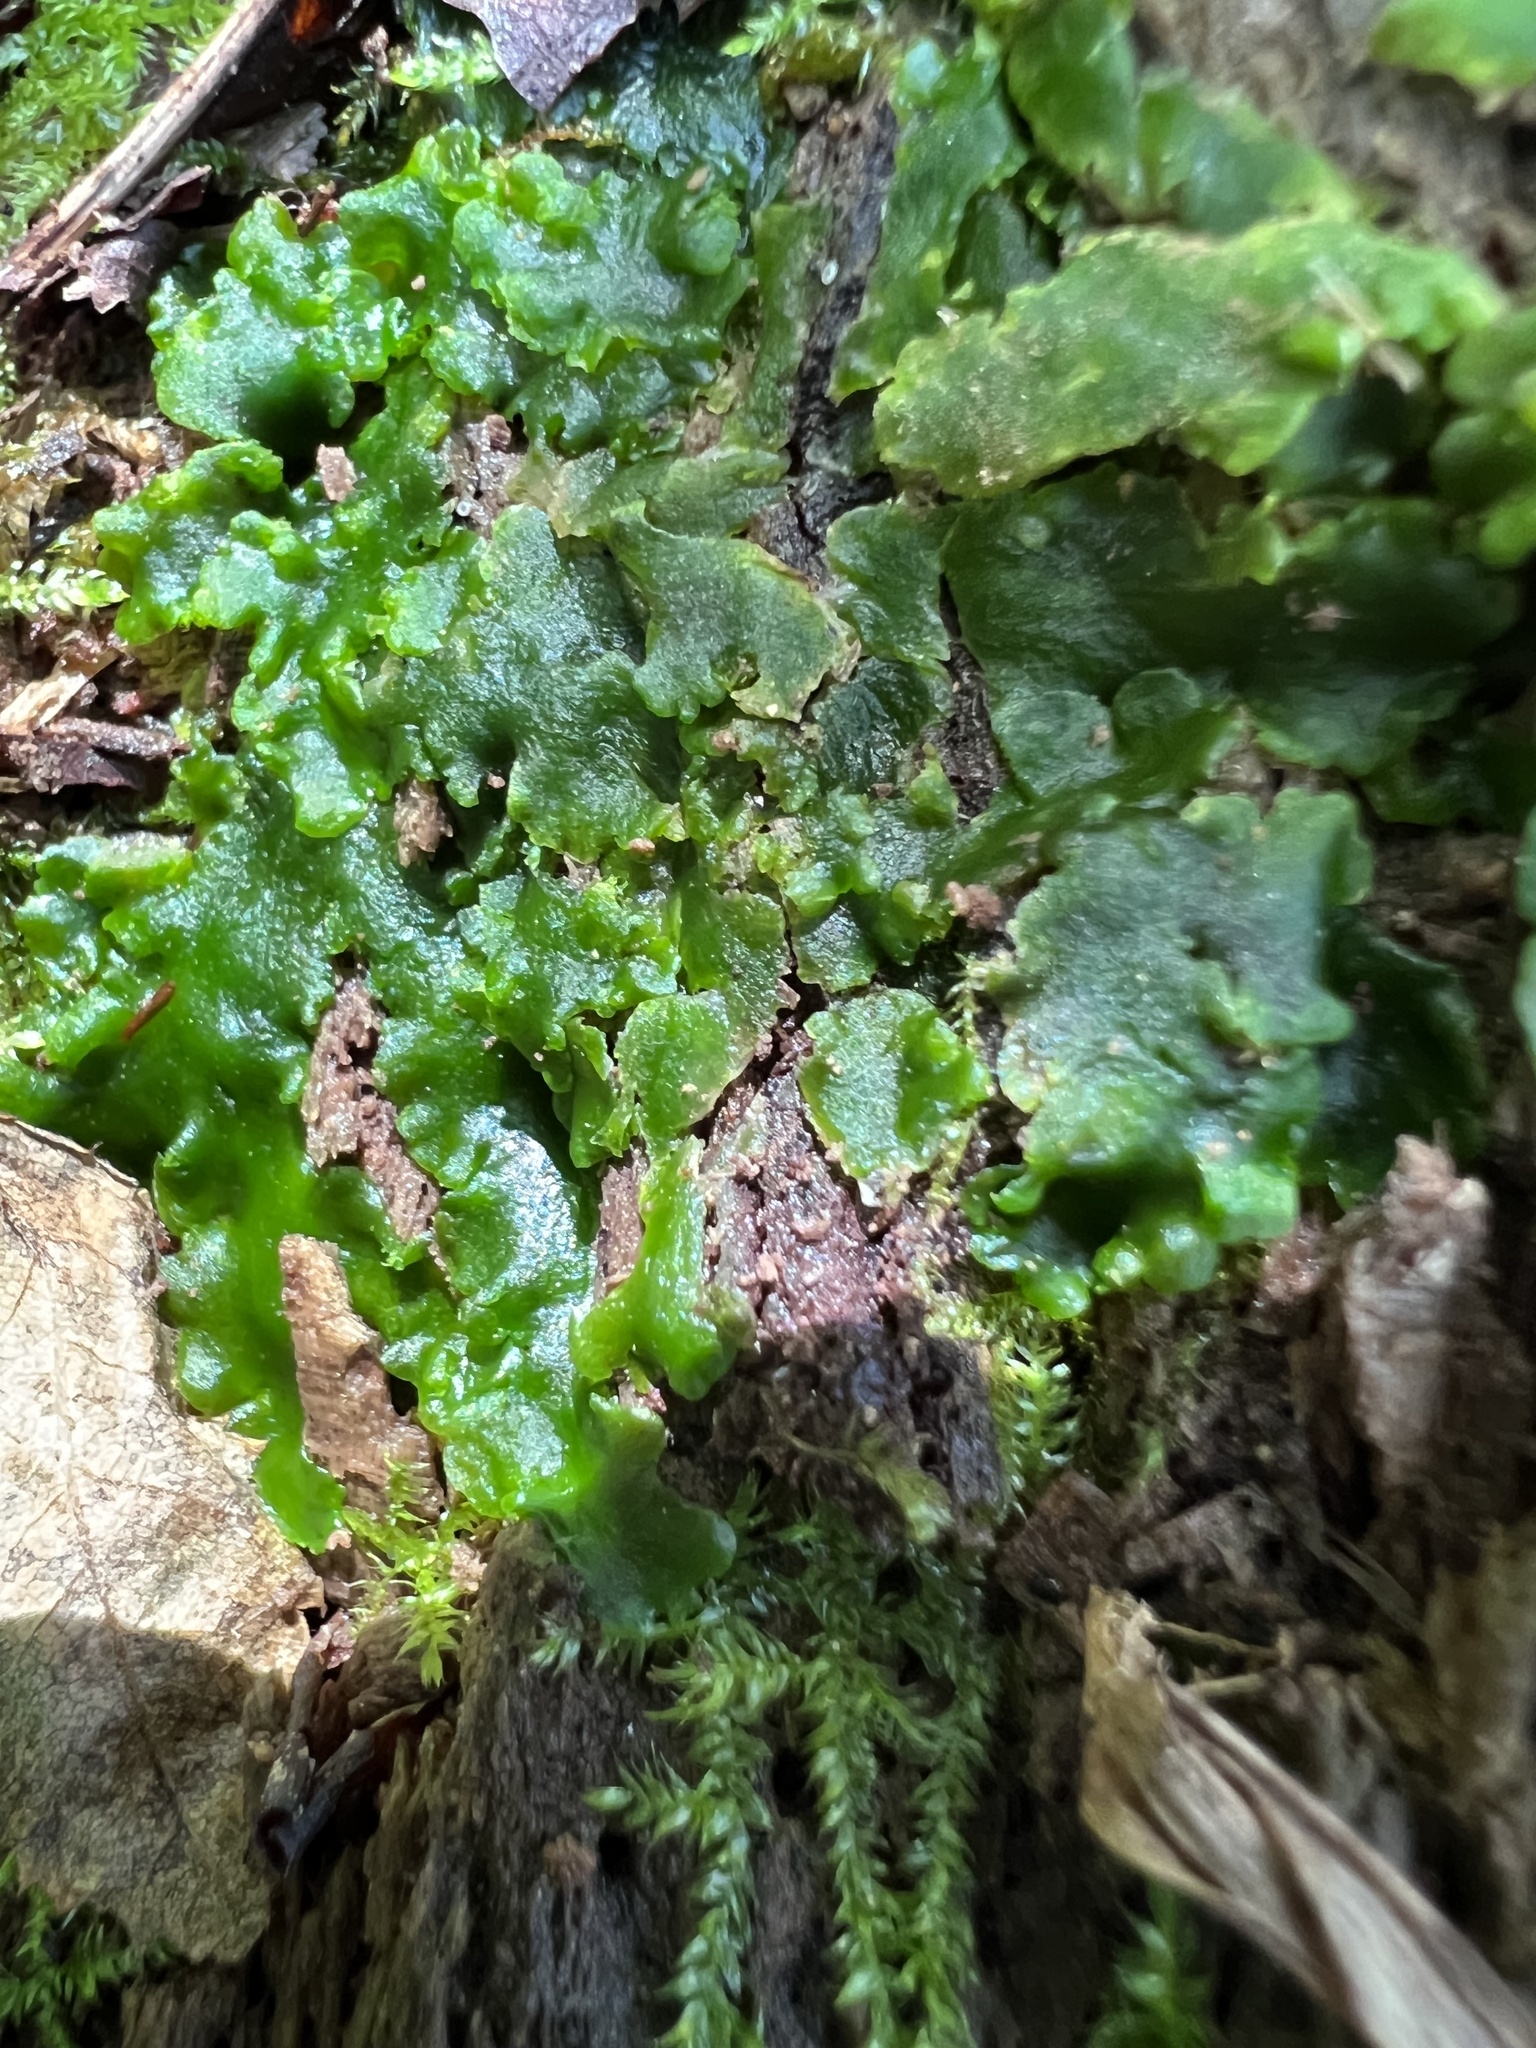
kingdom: Plantae
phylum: Marchantiophyta
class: Jungermanniopsida
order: Metzgeriales
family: Aneuraceae
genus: Aneura
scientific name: Aneura pinguis
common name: Common greasewort
